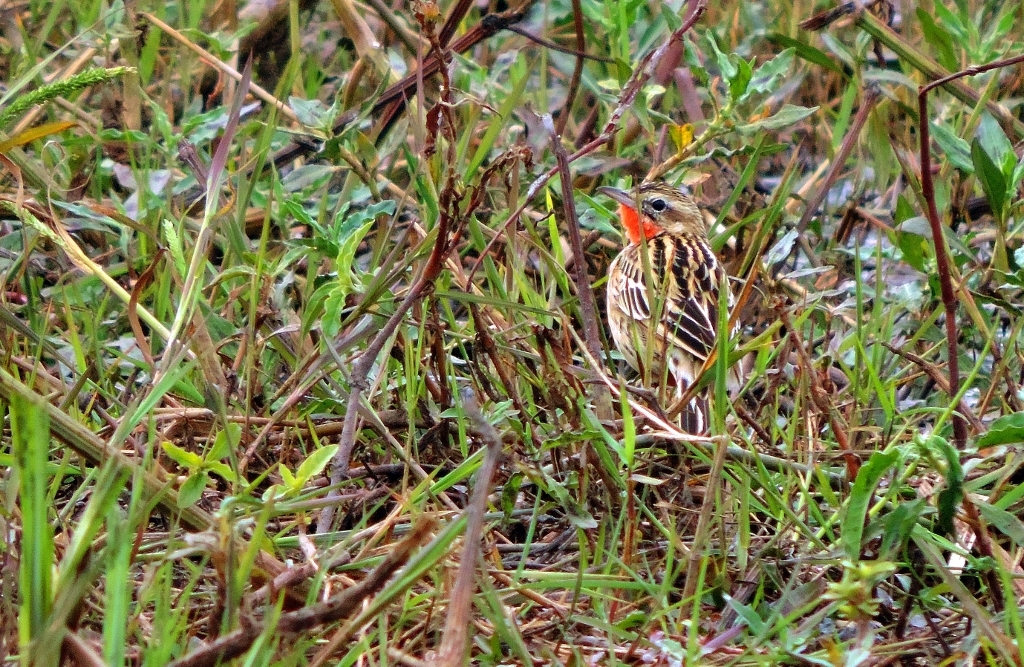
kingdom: Animalia
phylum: Chordata
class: Aves
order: Passeriformes
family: Motacillidae
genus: Macronyx
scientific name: Macronyx ameliae
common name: Rosy-throated longclaw
